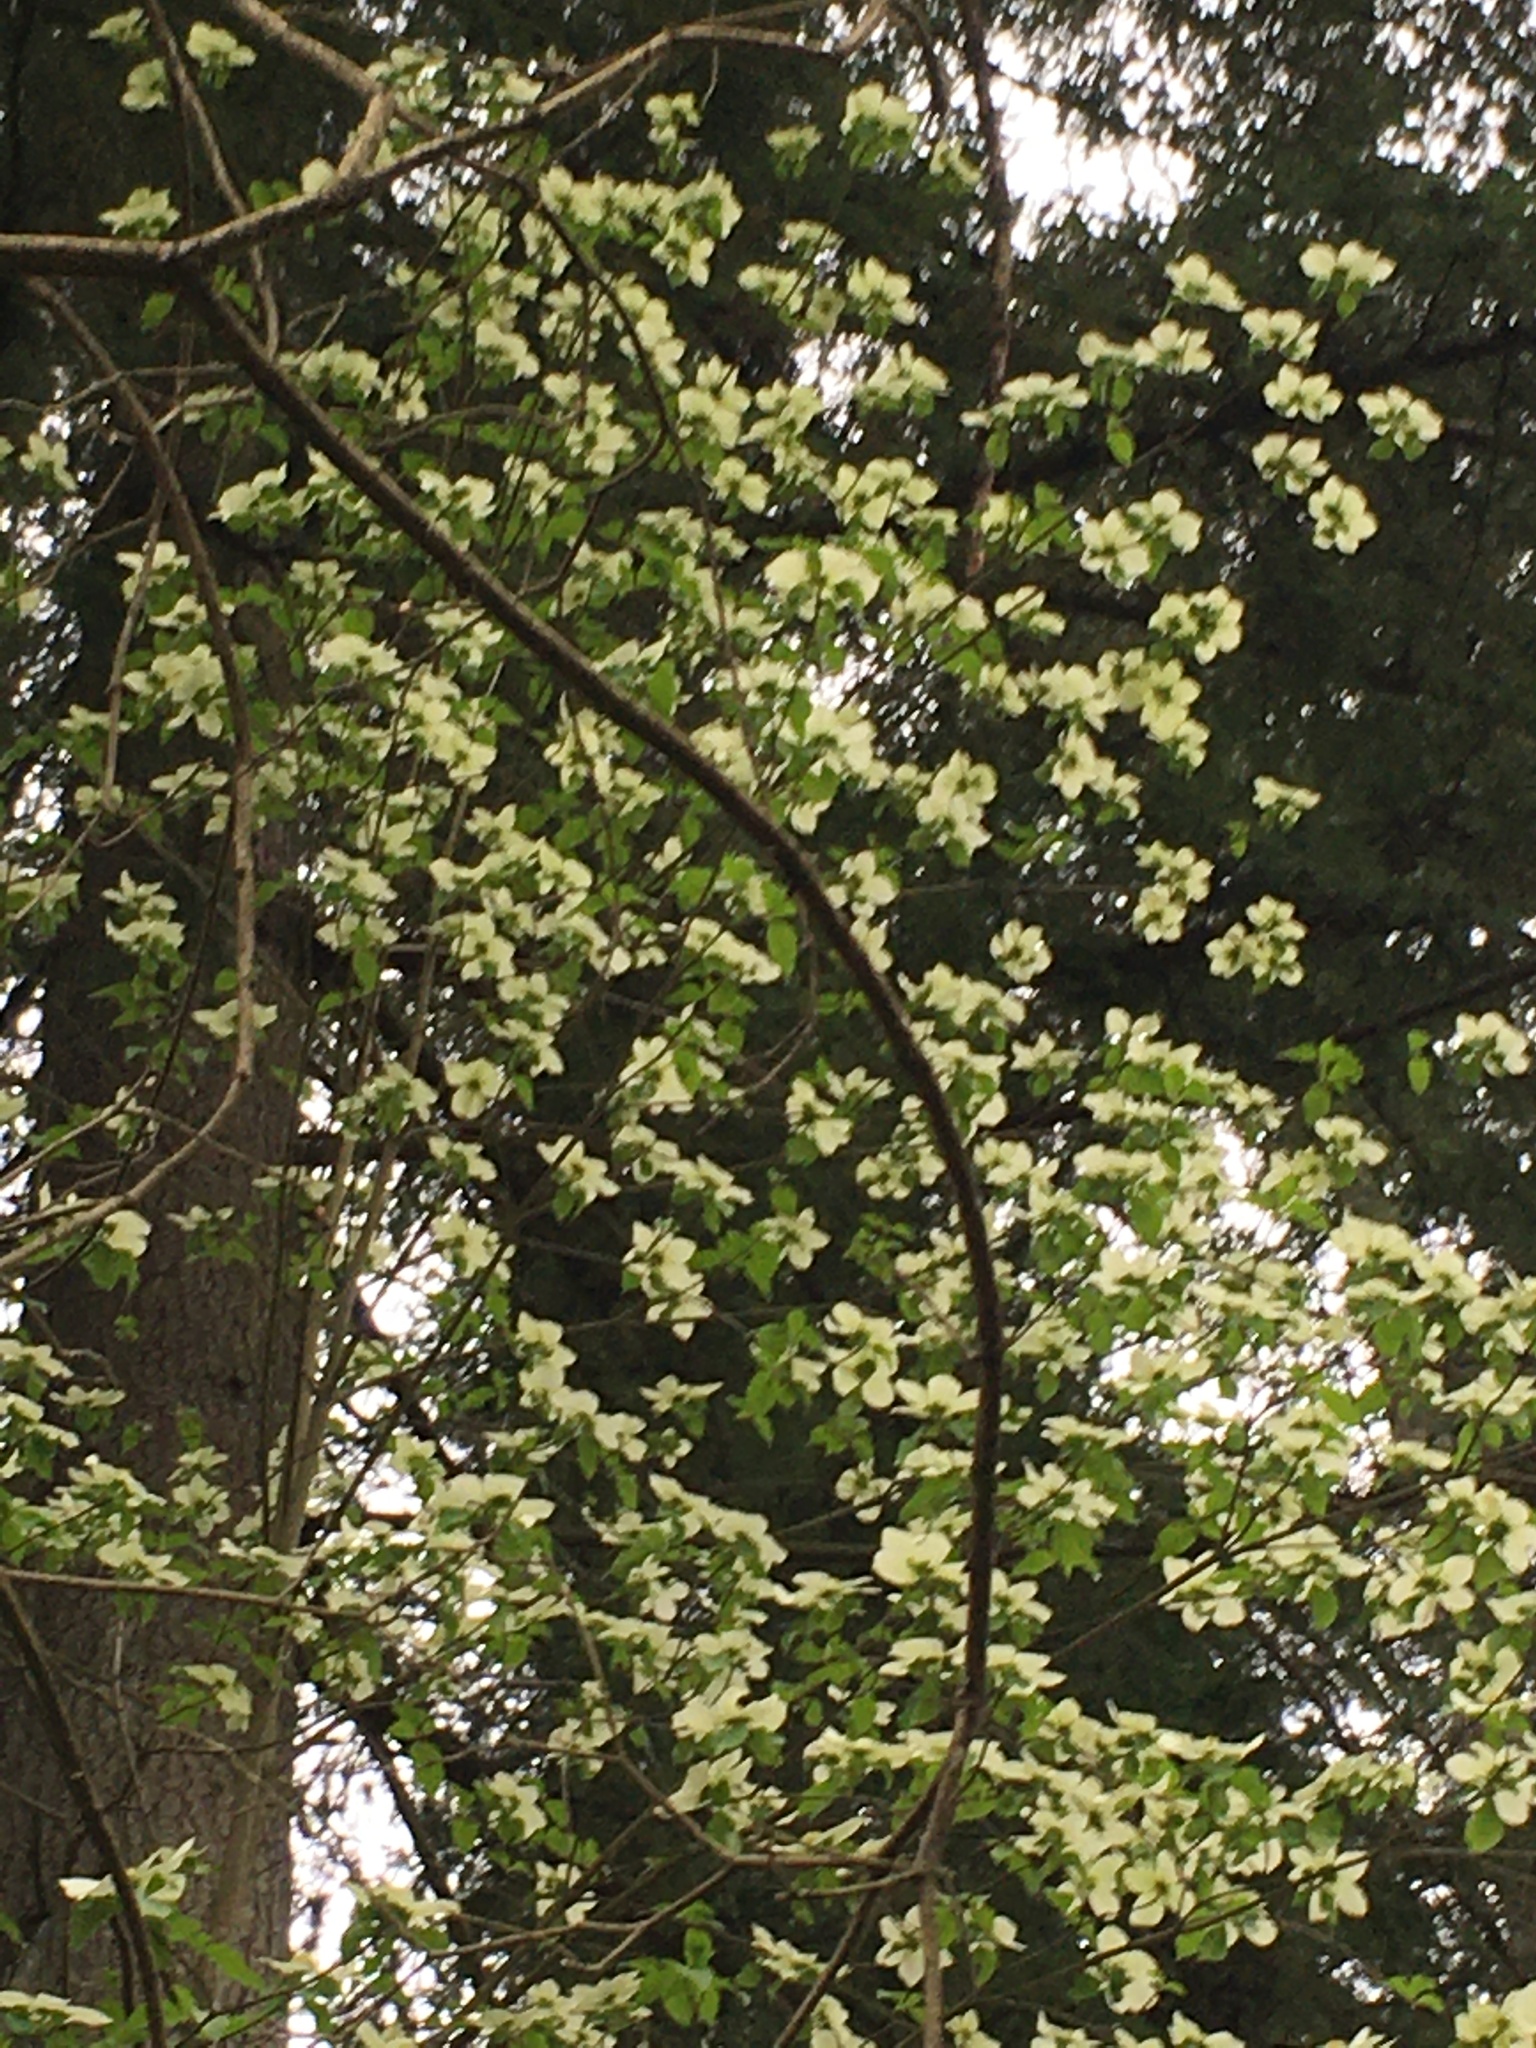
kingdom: Plantae
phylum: Tracheophyta
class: Magnoliopsida
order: Cornales
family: Cornaceae
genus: Cornus
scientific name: Cornus nuttallii
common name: Pacific dogwood
